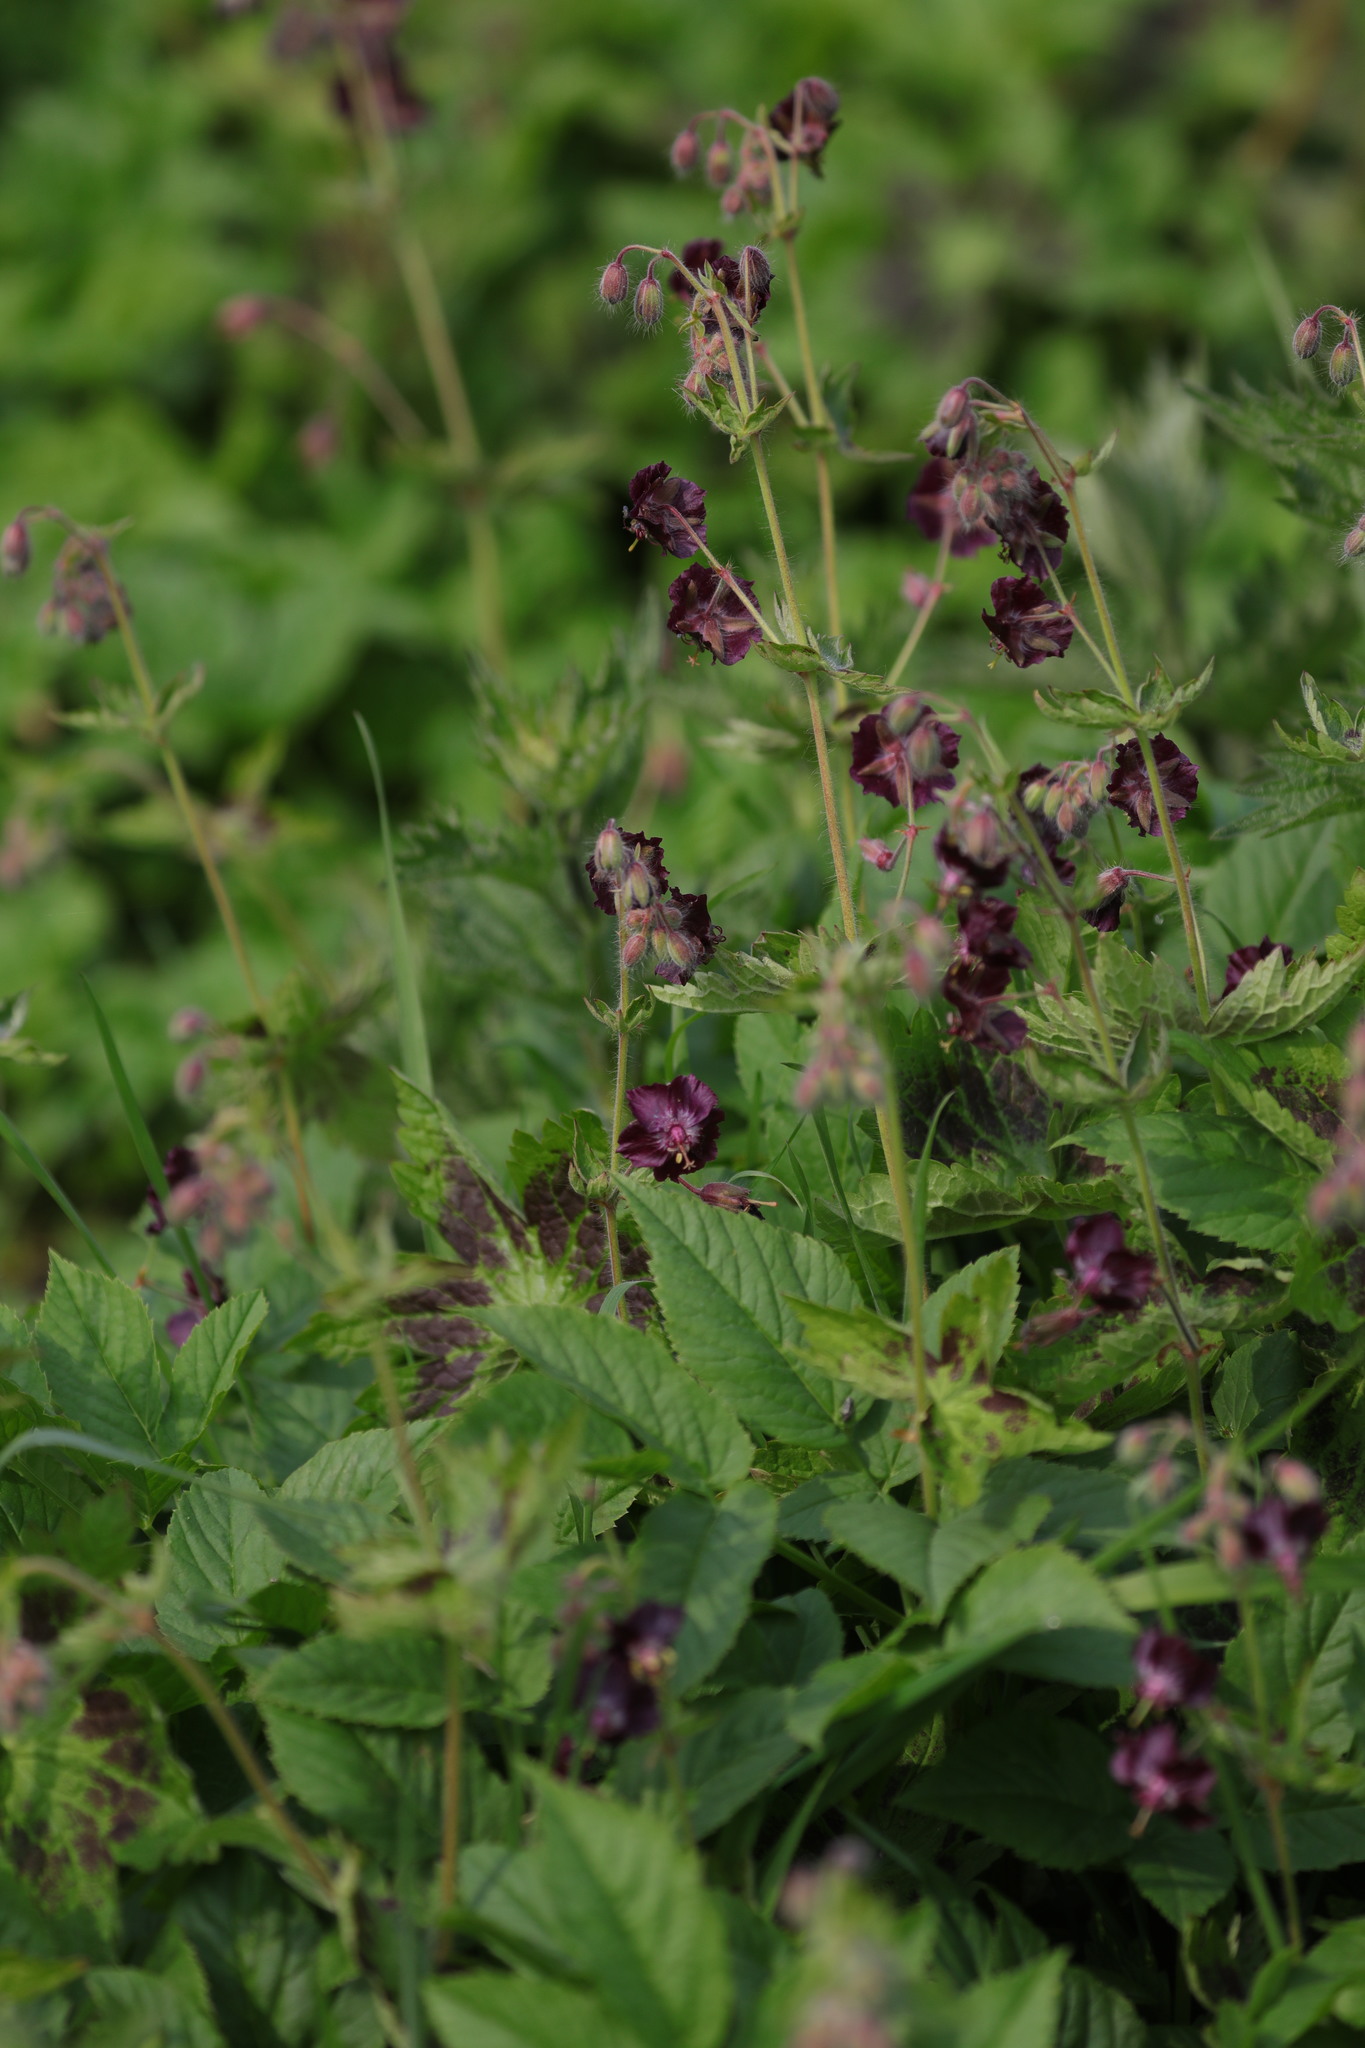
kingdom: Plantae
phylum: Tracheophyta
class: Magnoliopsida
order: Geraniales
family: Geraniaceae
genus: Geranium
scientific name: Geranium phaeum
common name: Dusky crane's-bill
